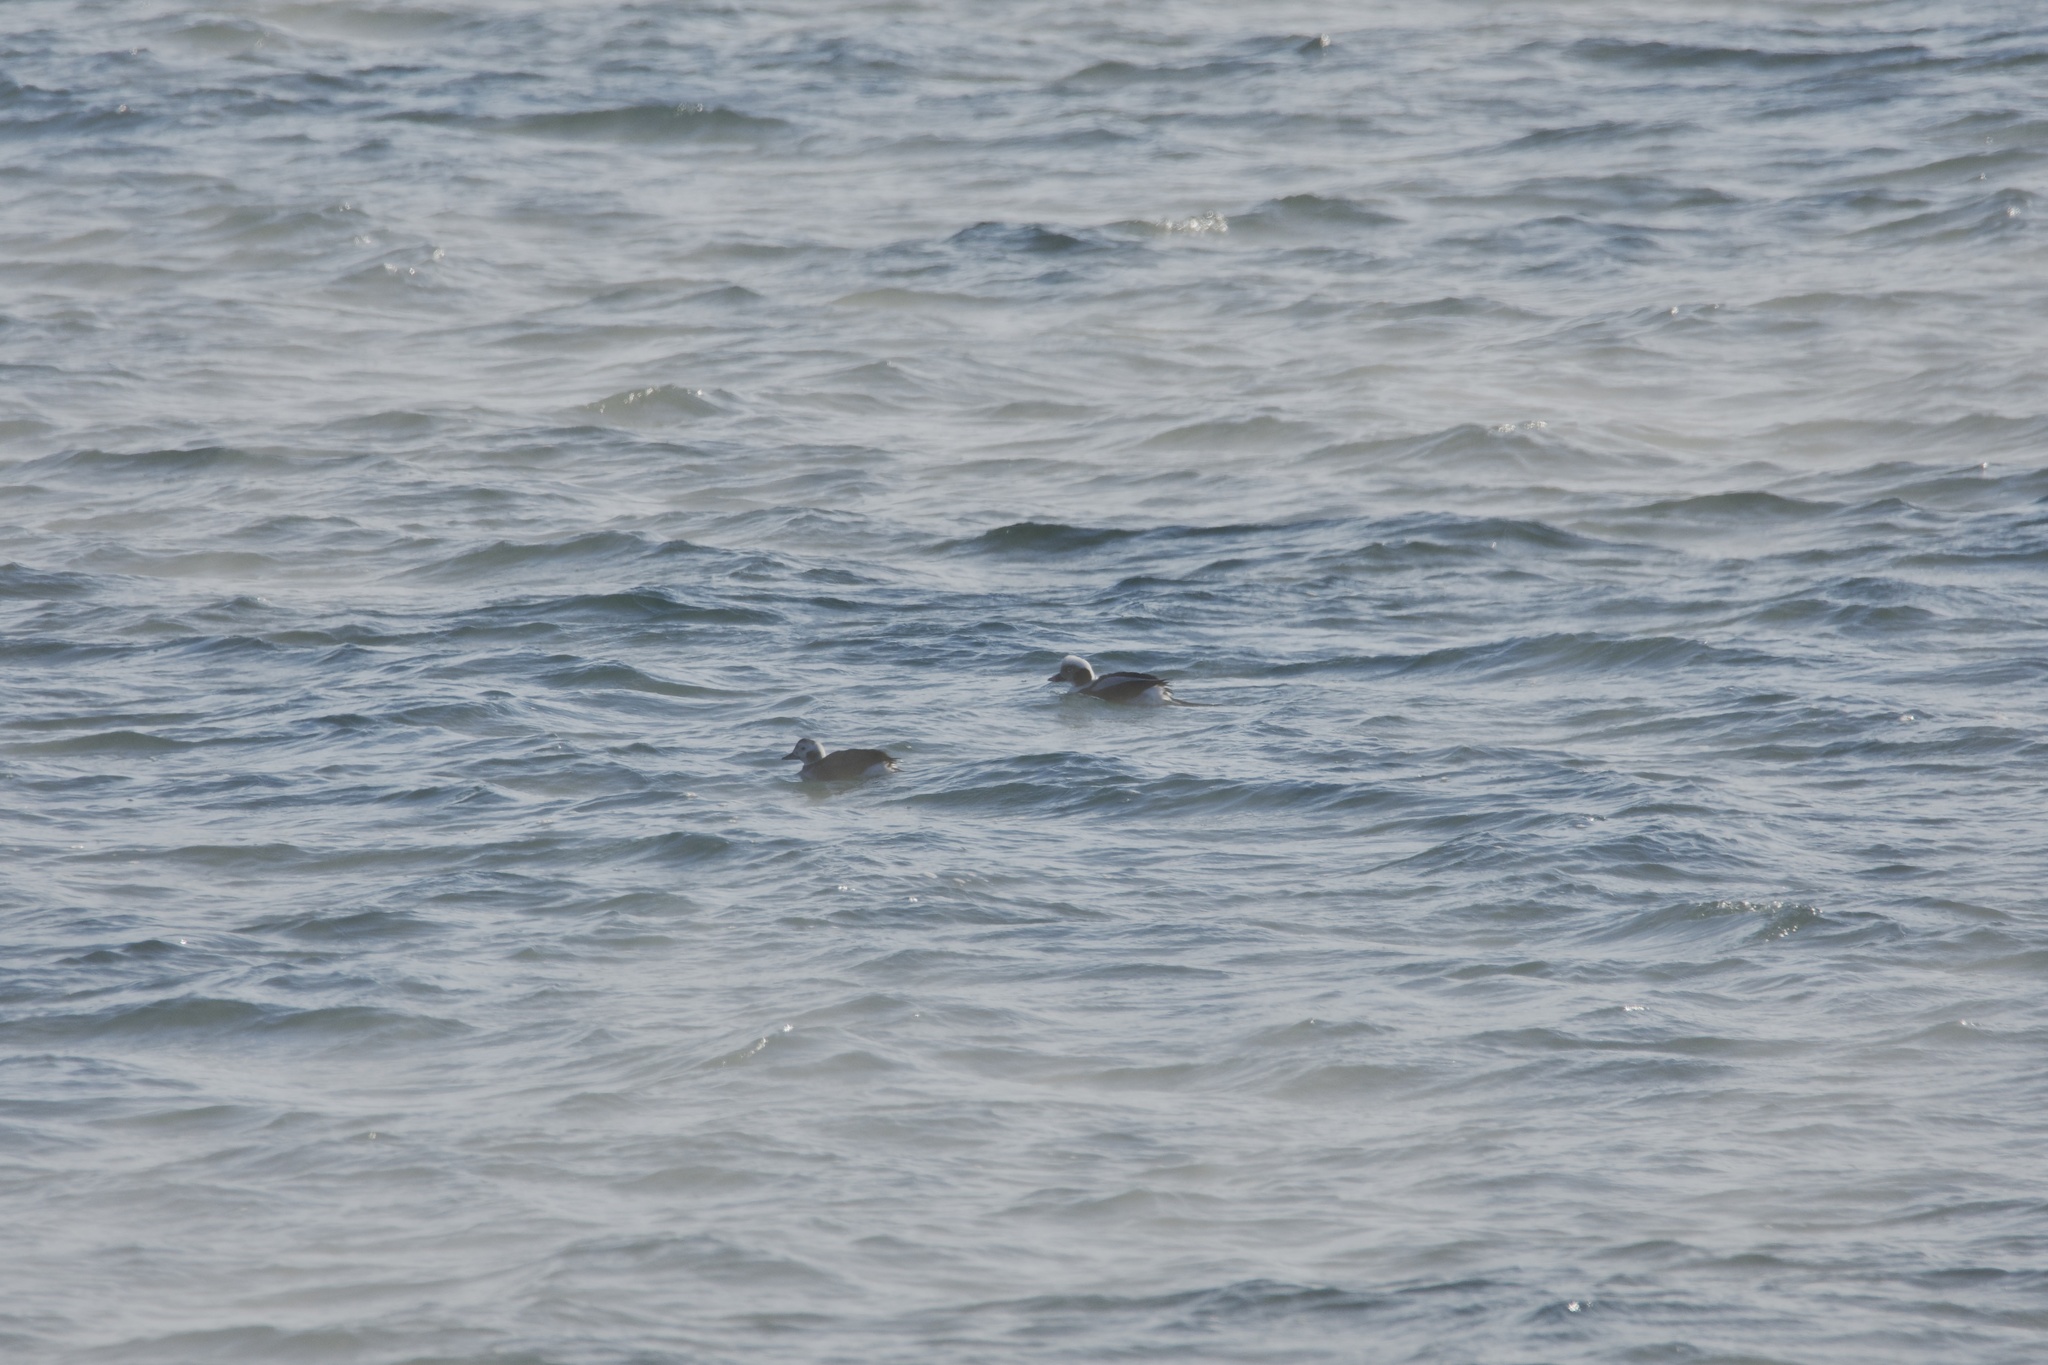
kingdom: Animalia
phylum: Chordata
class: Aves
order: Anseriformes
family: Anatidae
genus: Clangula
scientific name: Clangula hyemalis
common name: Long-tailed duck
